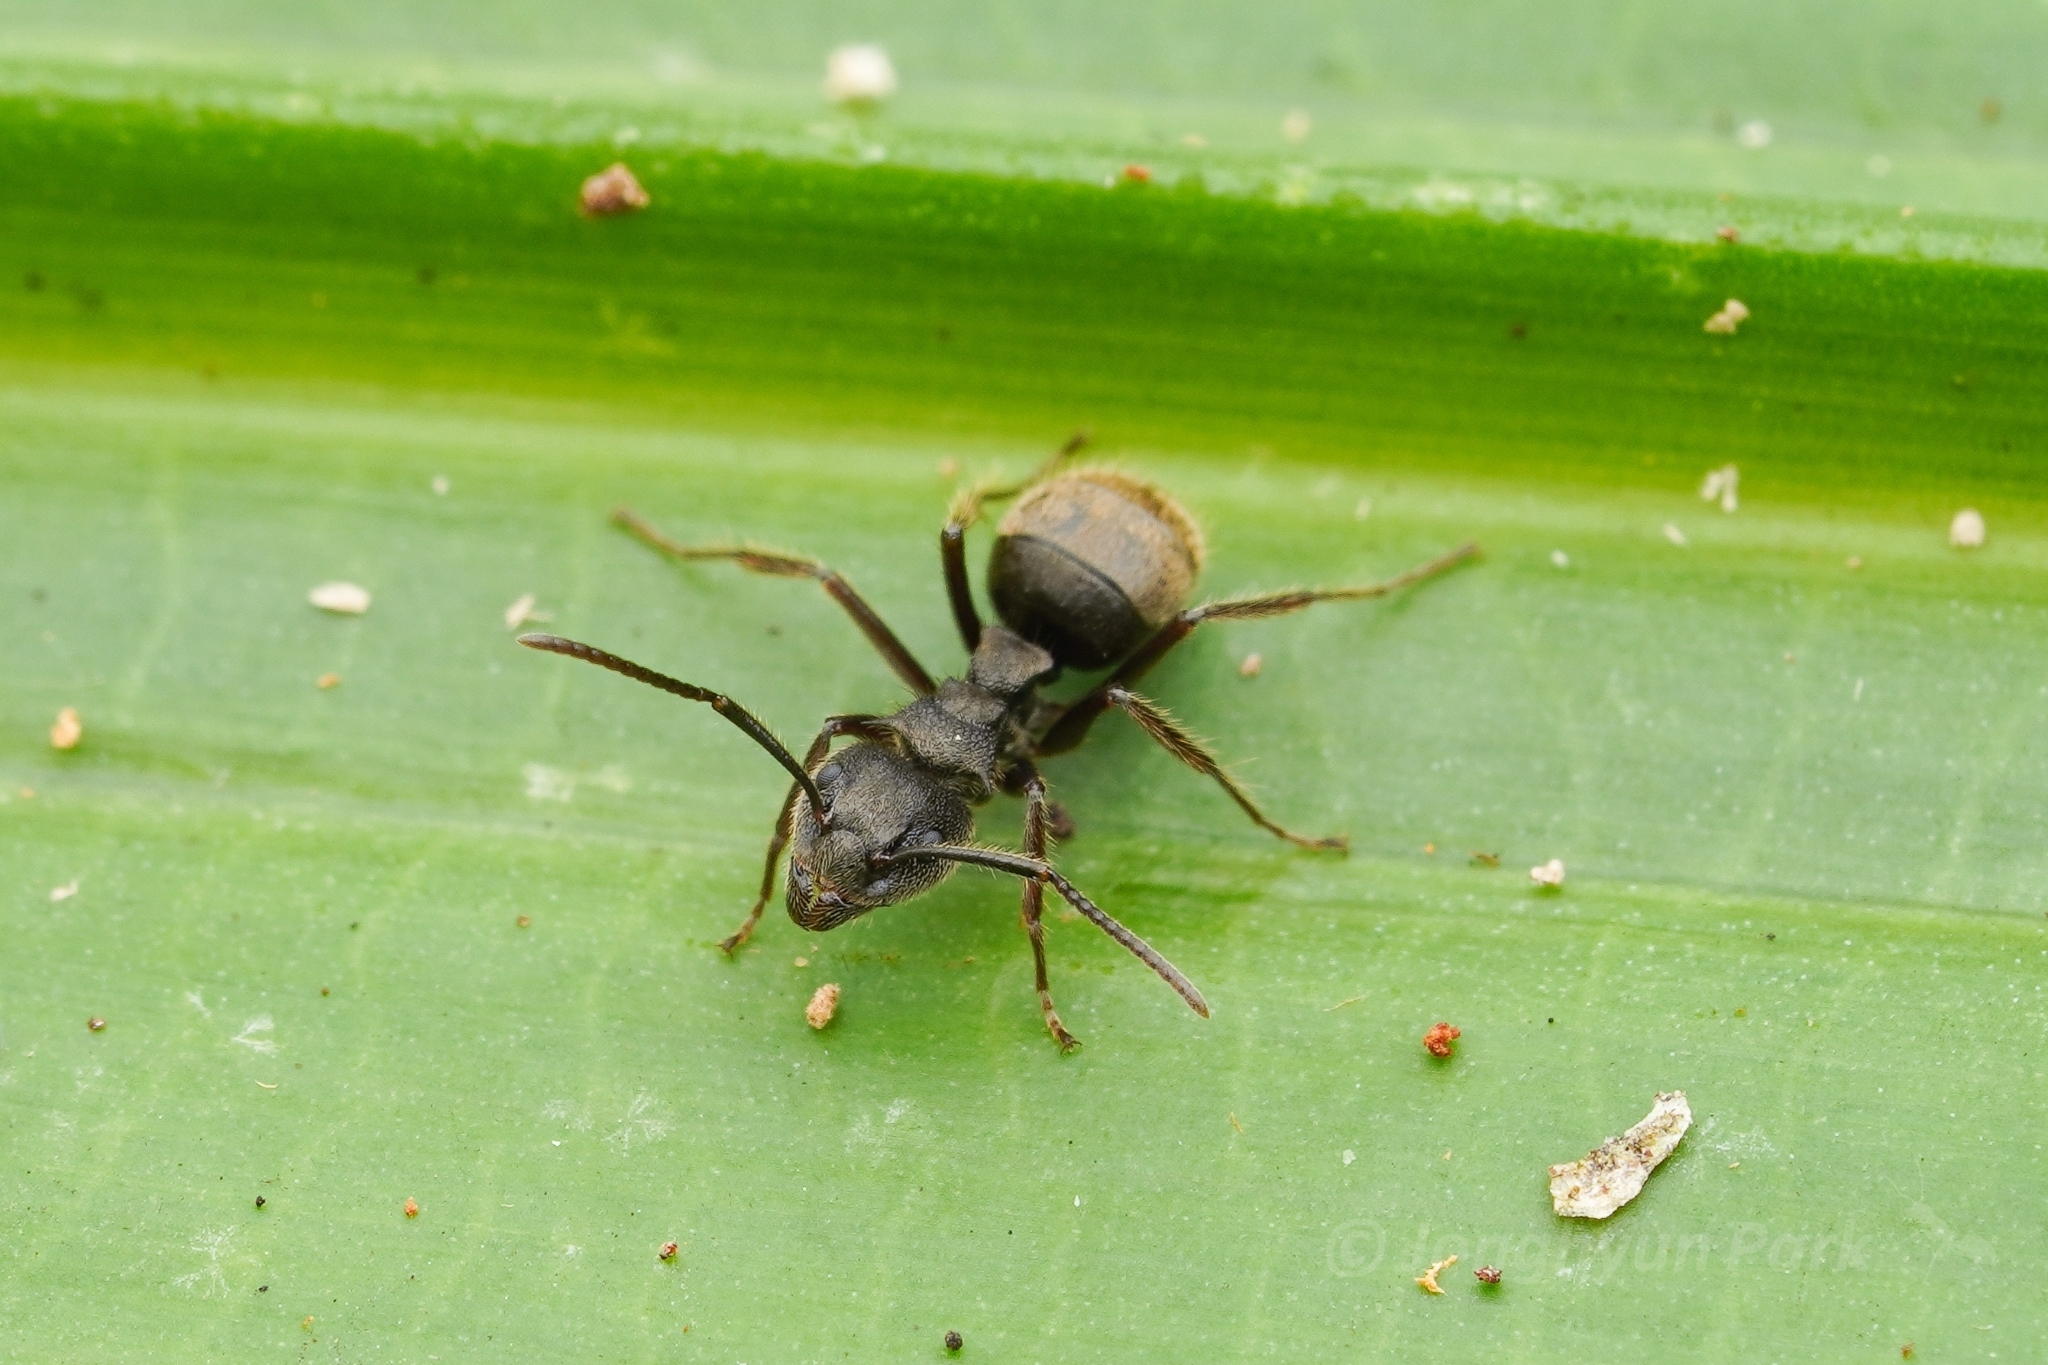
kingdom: Animalia
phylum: Arthropoda
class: Insecta
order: Hymenoptera
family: Formicidae
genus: Dolichoderus
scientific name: Dolichoderus bispinosus
